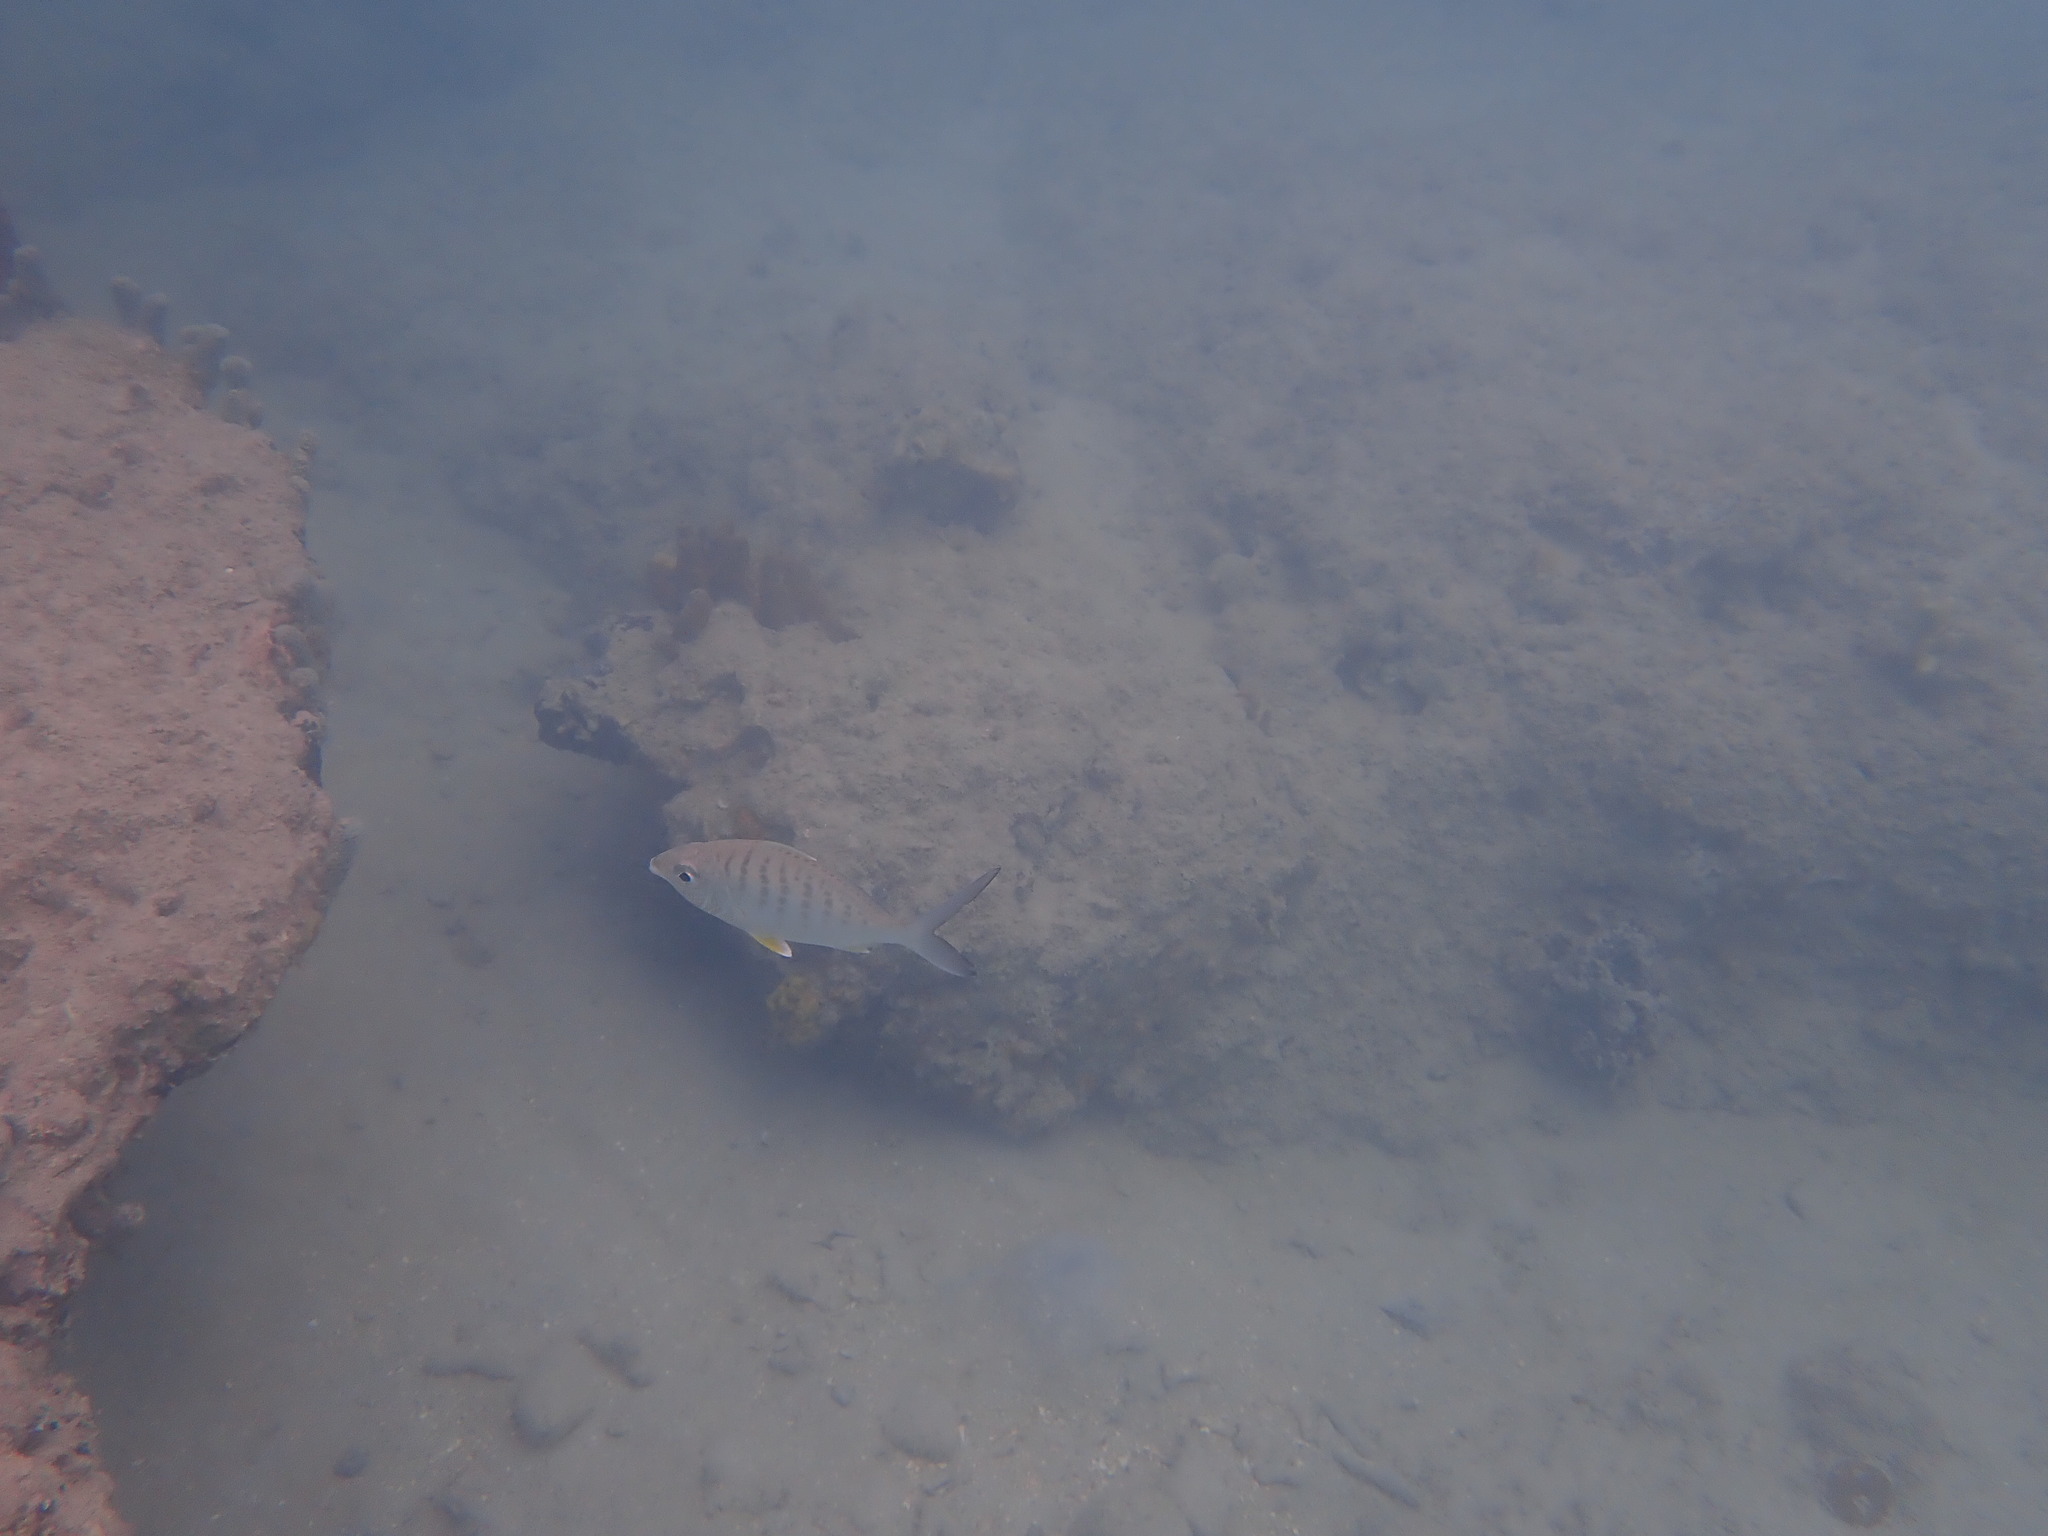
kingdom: Animalia
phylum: Chordata
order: Perciformes
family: Gerreidae
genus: Gerres
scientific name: Gerres cinereus
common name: Hedow
